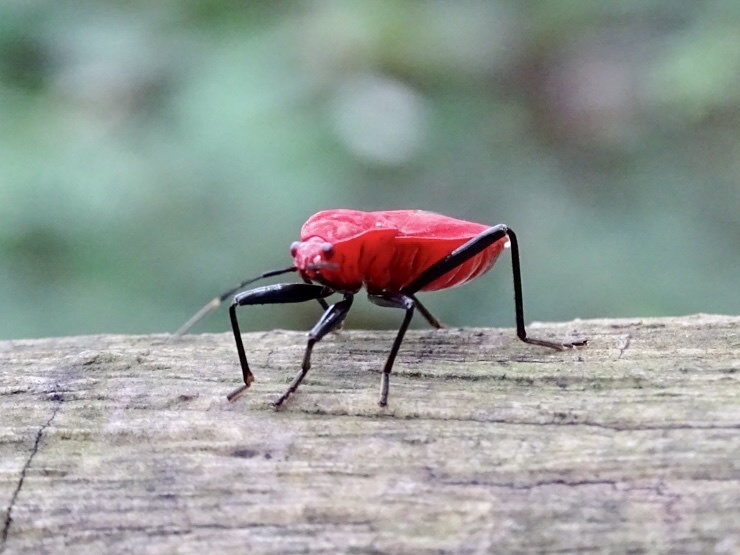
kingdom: Animalia
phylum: Arthropoda
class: Insecta
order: Hemiptera
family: Pyrrhocoridae
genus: Antilochus
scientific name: Antilochus
